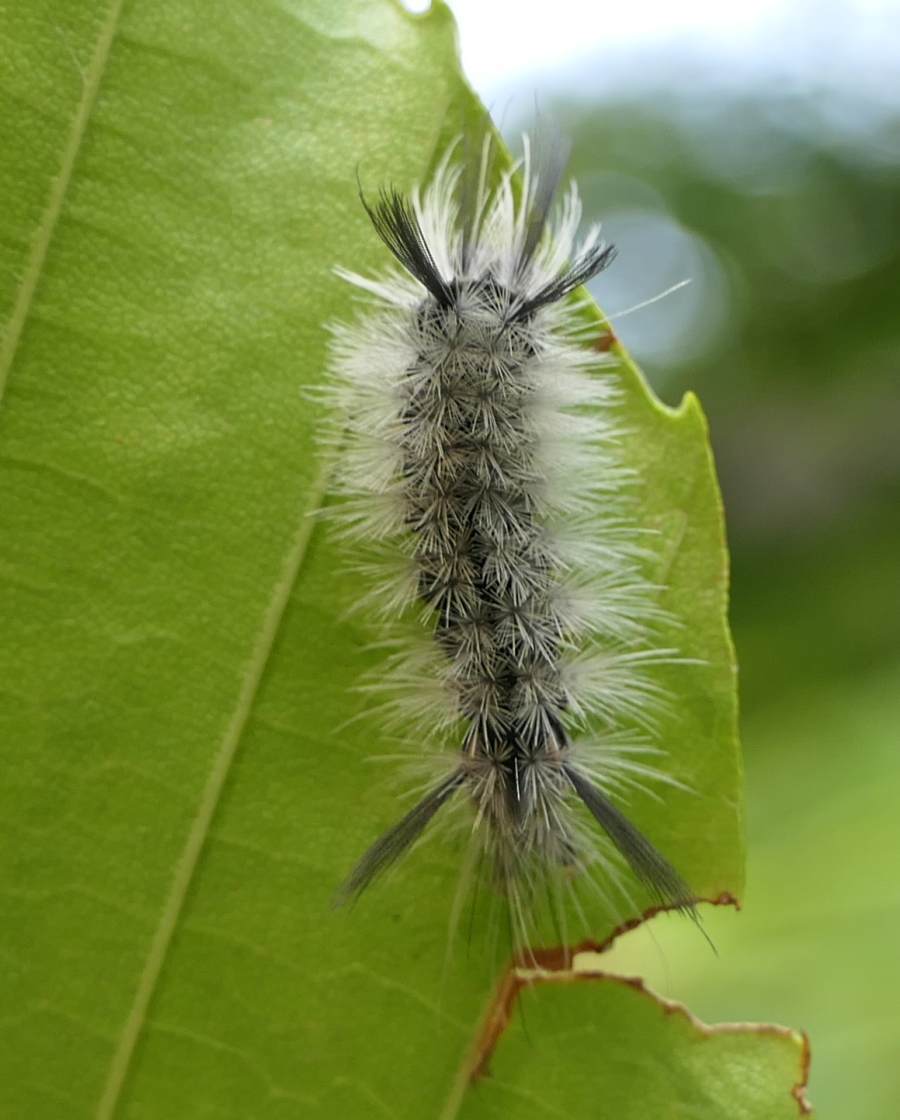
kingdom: Animalia
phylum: Arthropoda
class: Insecta
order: Lepidoptera
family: Erebidae
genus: Halysidota
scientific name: Halysidota tessellaris
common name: Banded tussock moth
